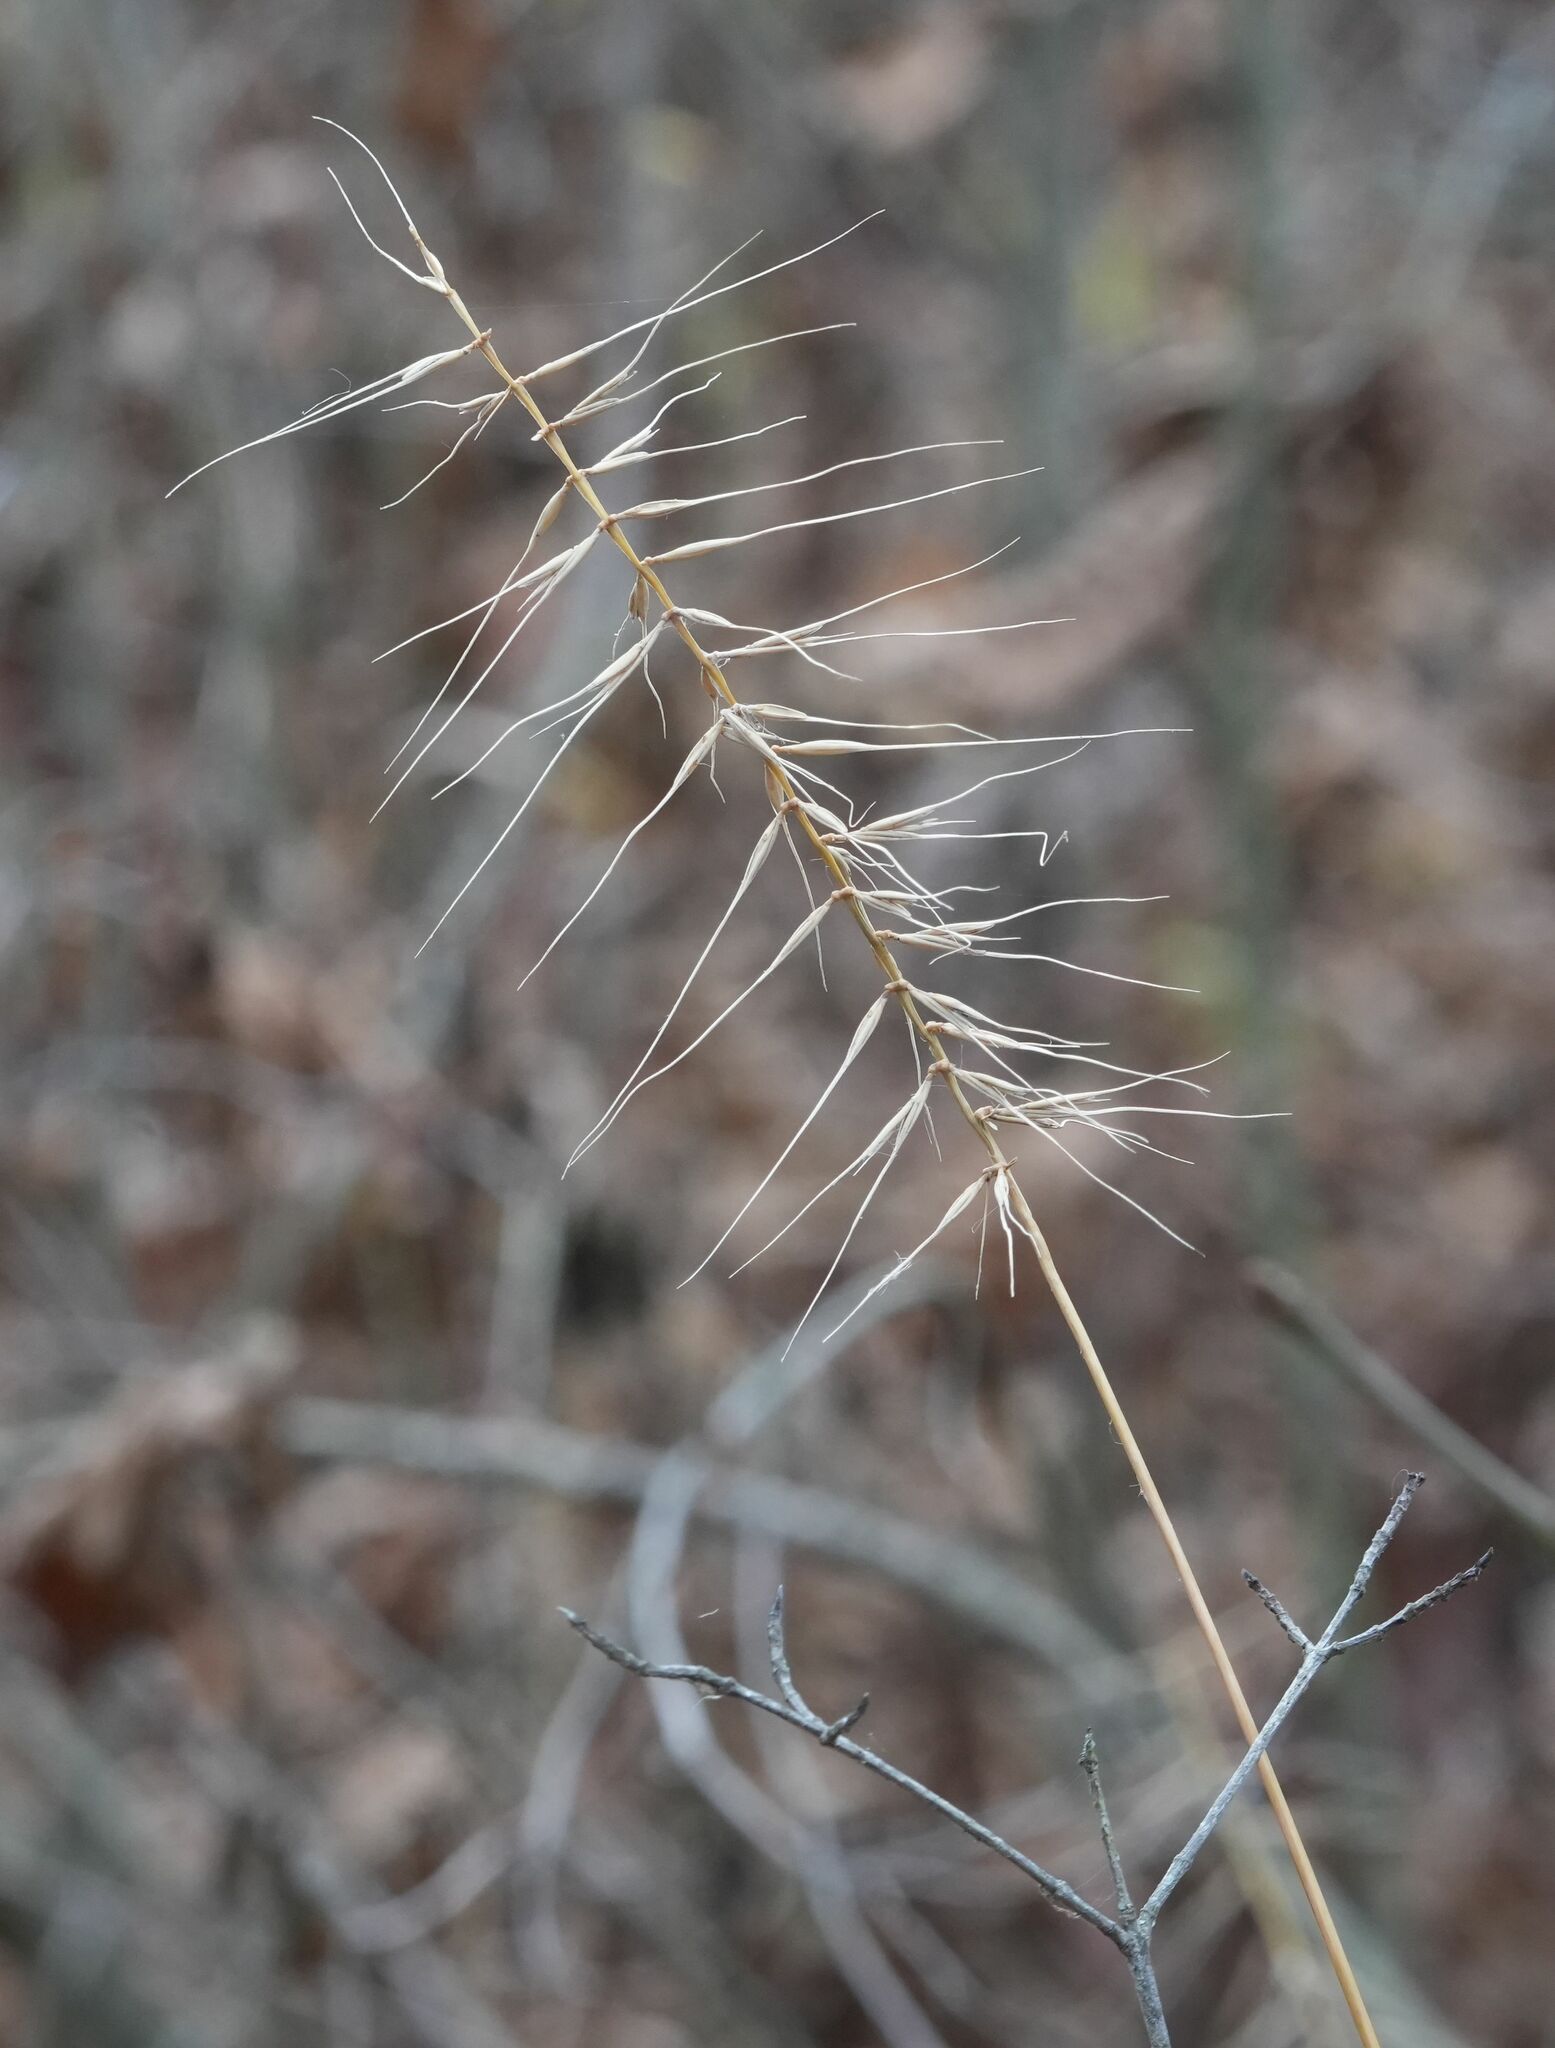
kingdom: Plantae
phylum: Tracheophyta
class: Liliopsida
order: Poales
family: Poaceae
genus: Elymus
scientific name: Elymus hystrix
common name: Bottlebrush grass
